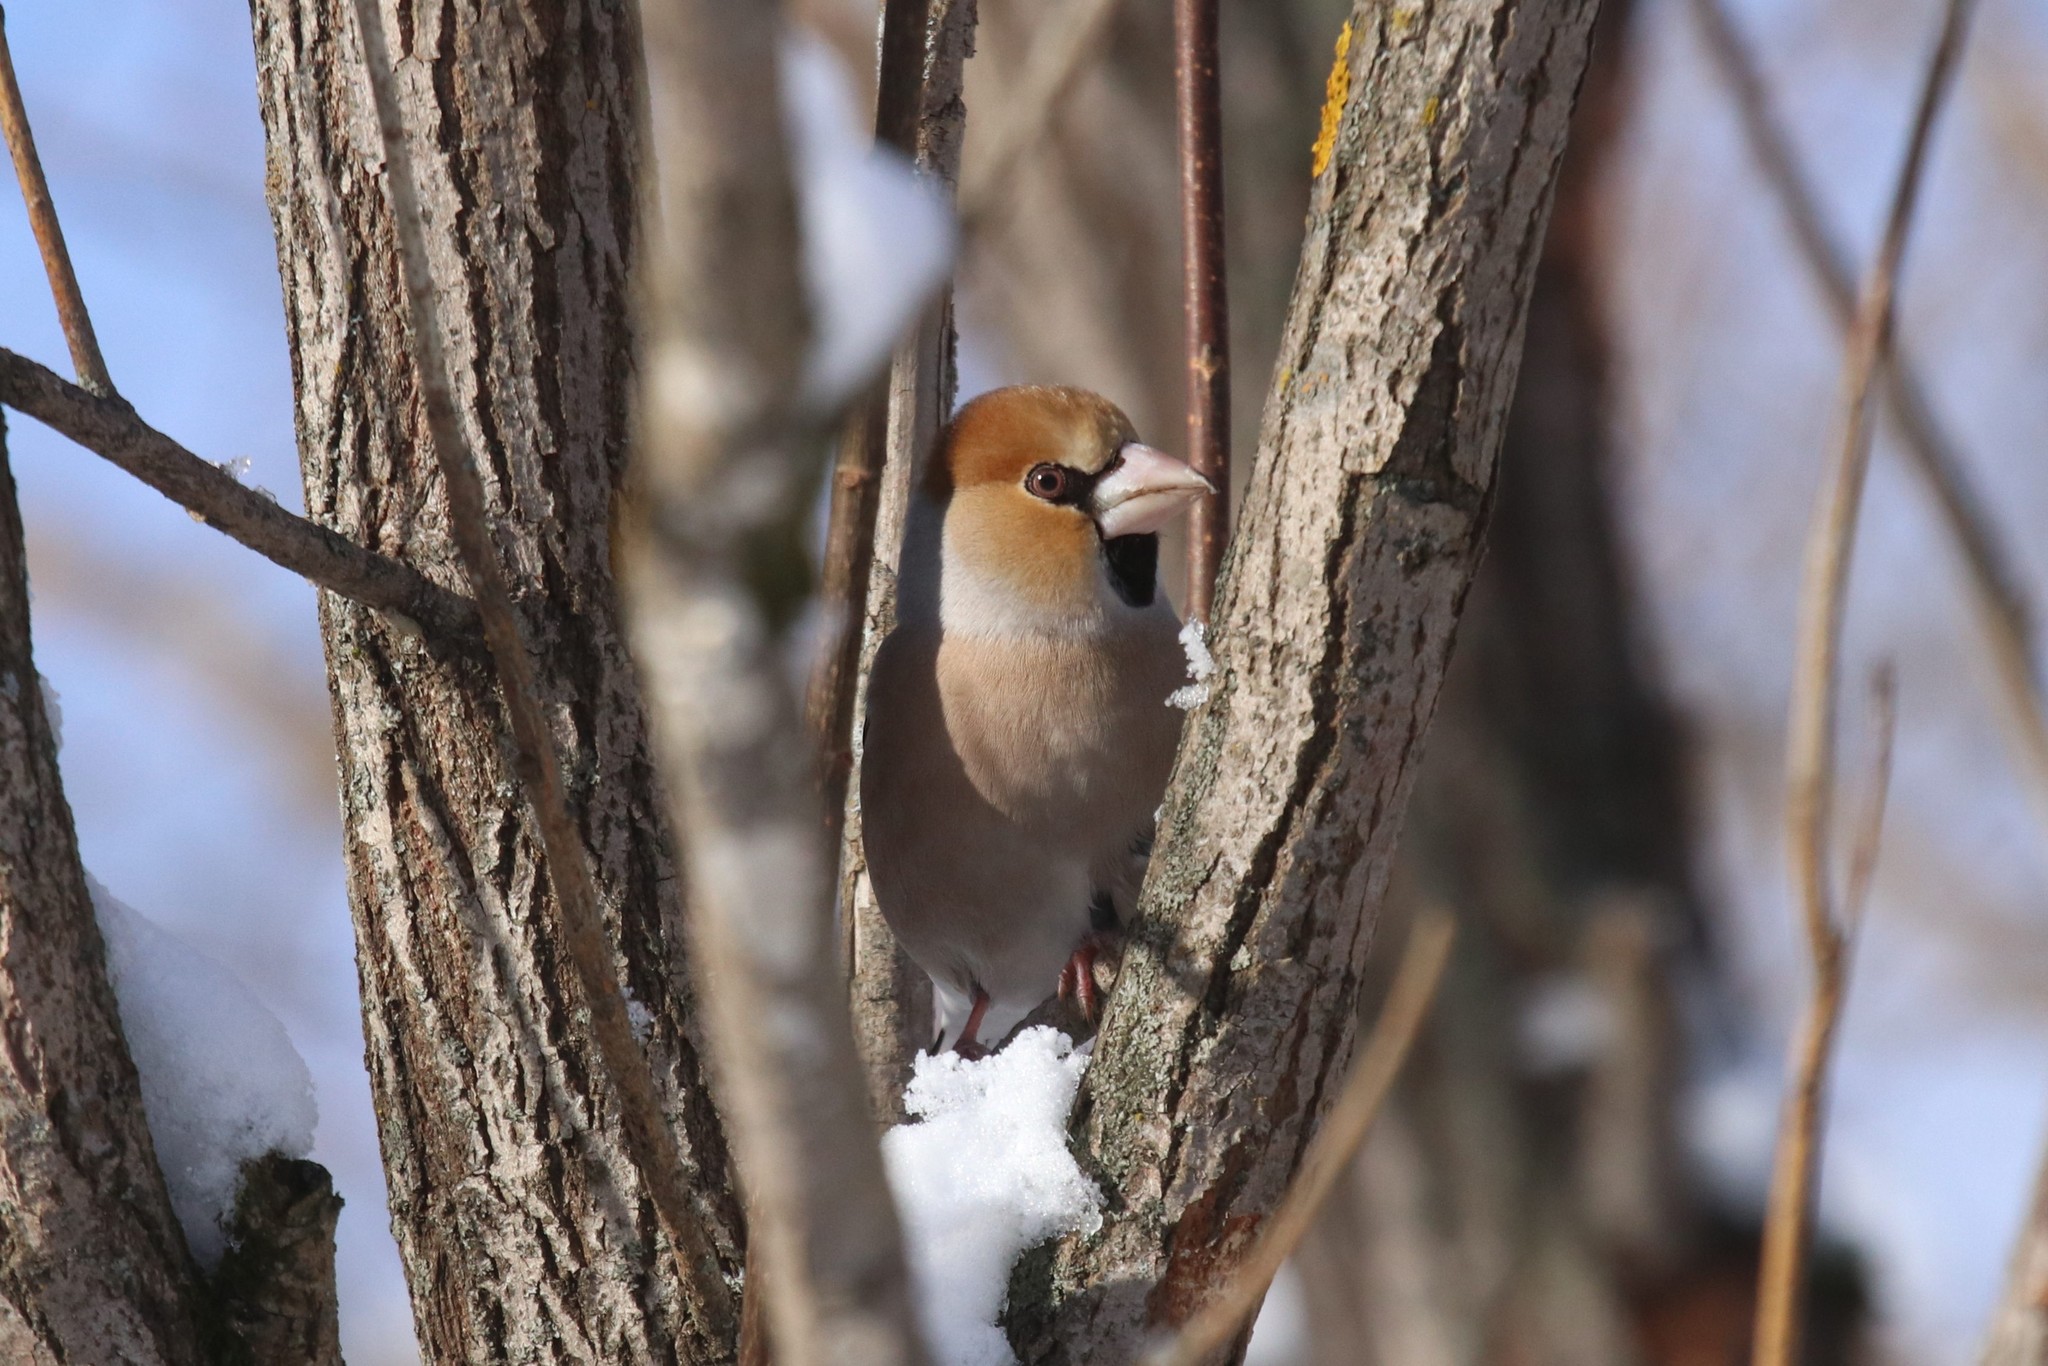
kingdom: Animalia
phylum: Chordata
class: Aves
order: Passeriformes
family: Fringillidae
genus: Coccothraustes
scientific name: Coccothraustes coccothraustes
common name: Hawfinch
